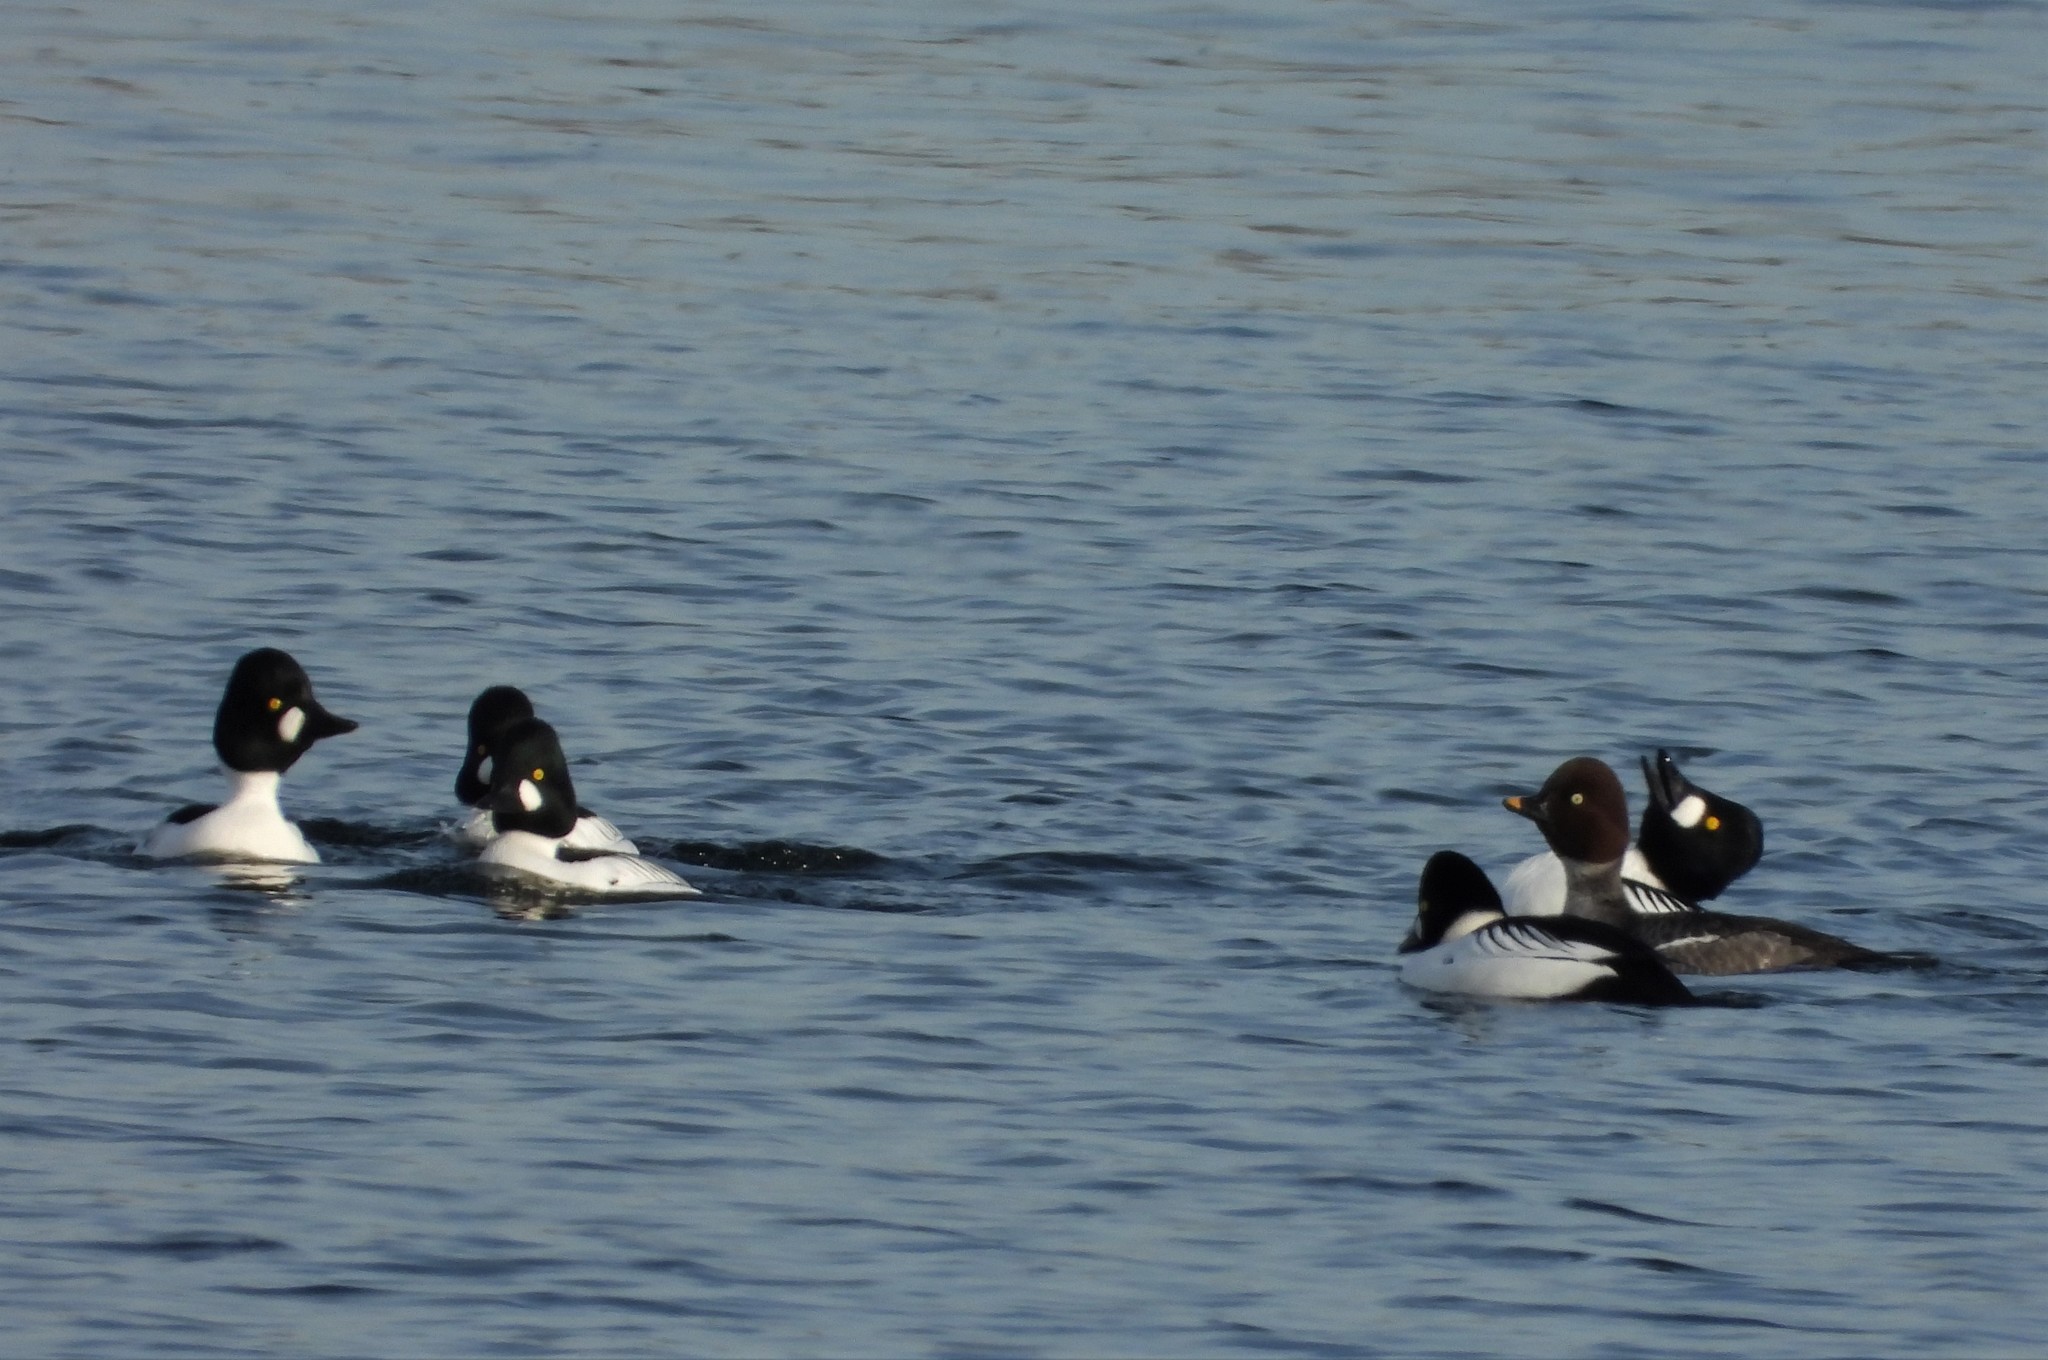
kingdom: Animalia
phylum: Chordata
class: Aves
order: Anseriformes
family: Anatidae
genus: Bucephala
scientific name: Bucephala clangula
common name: Common goldeneye
